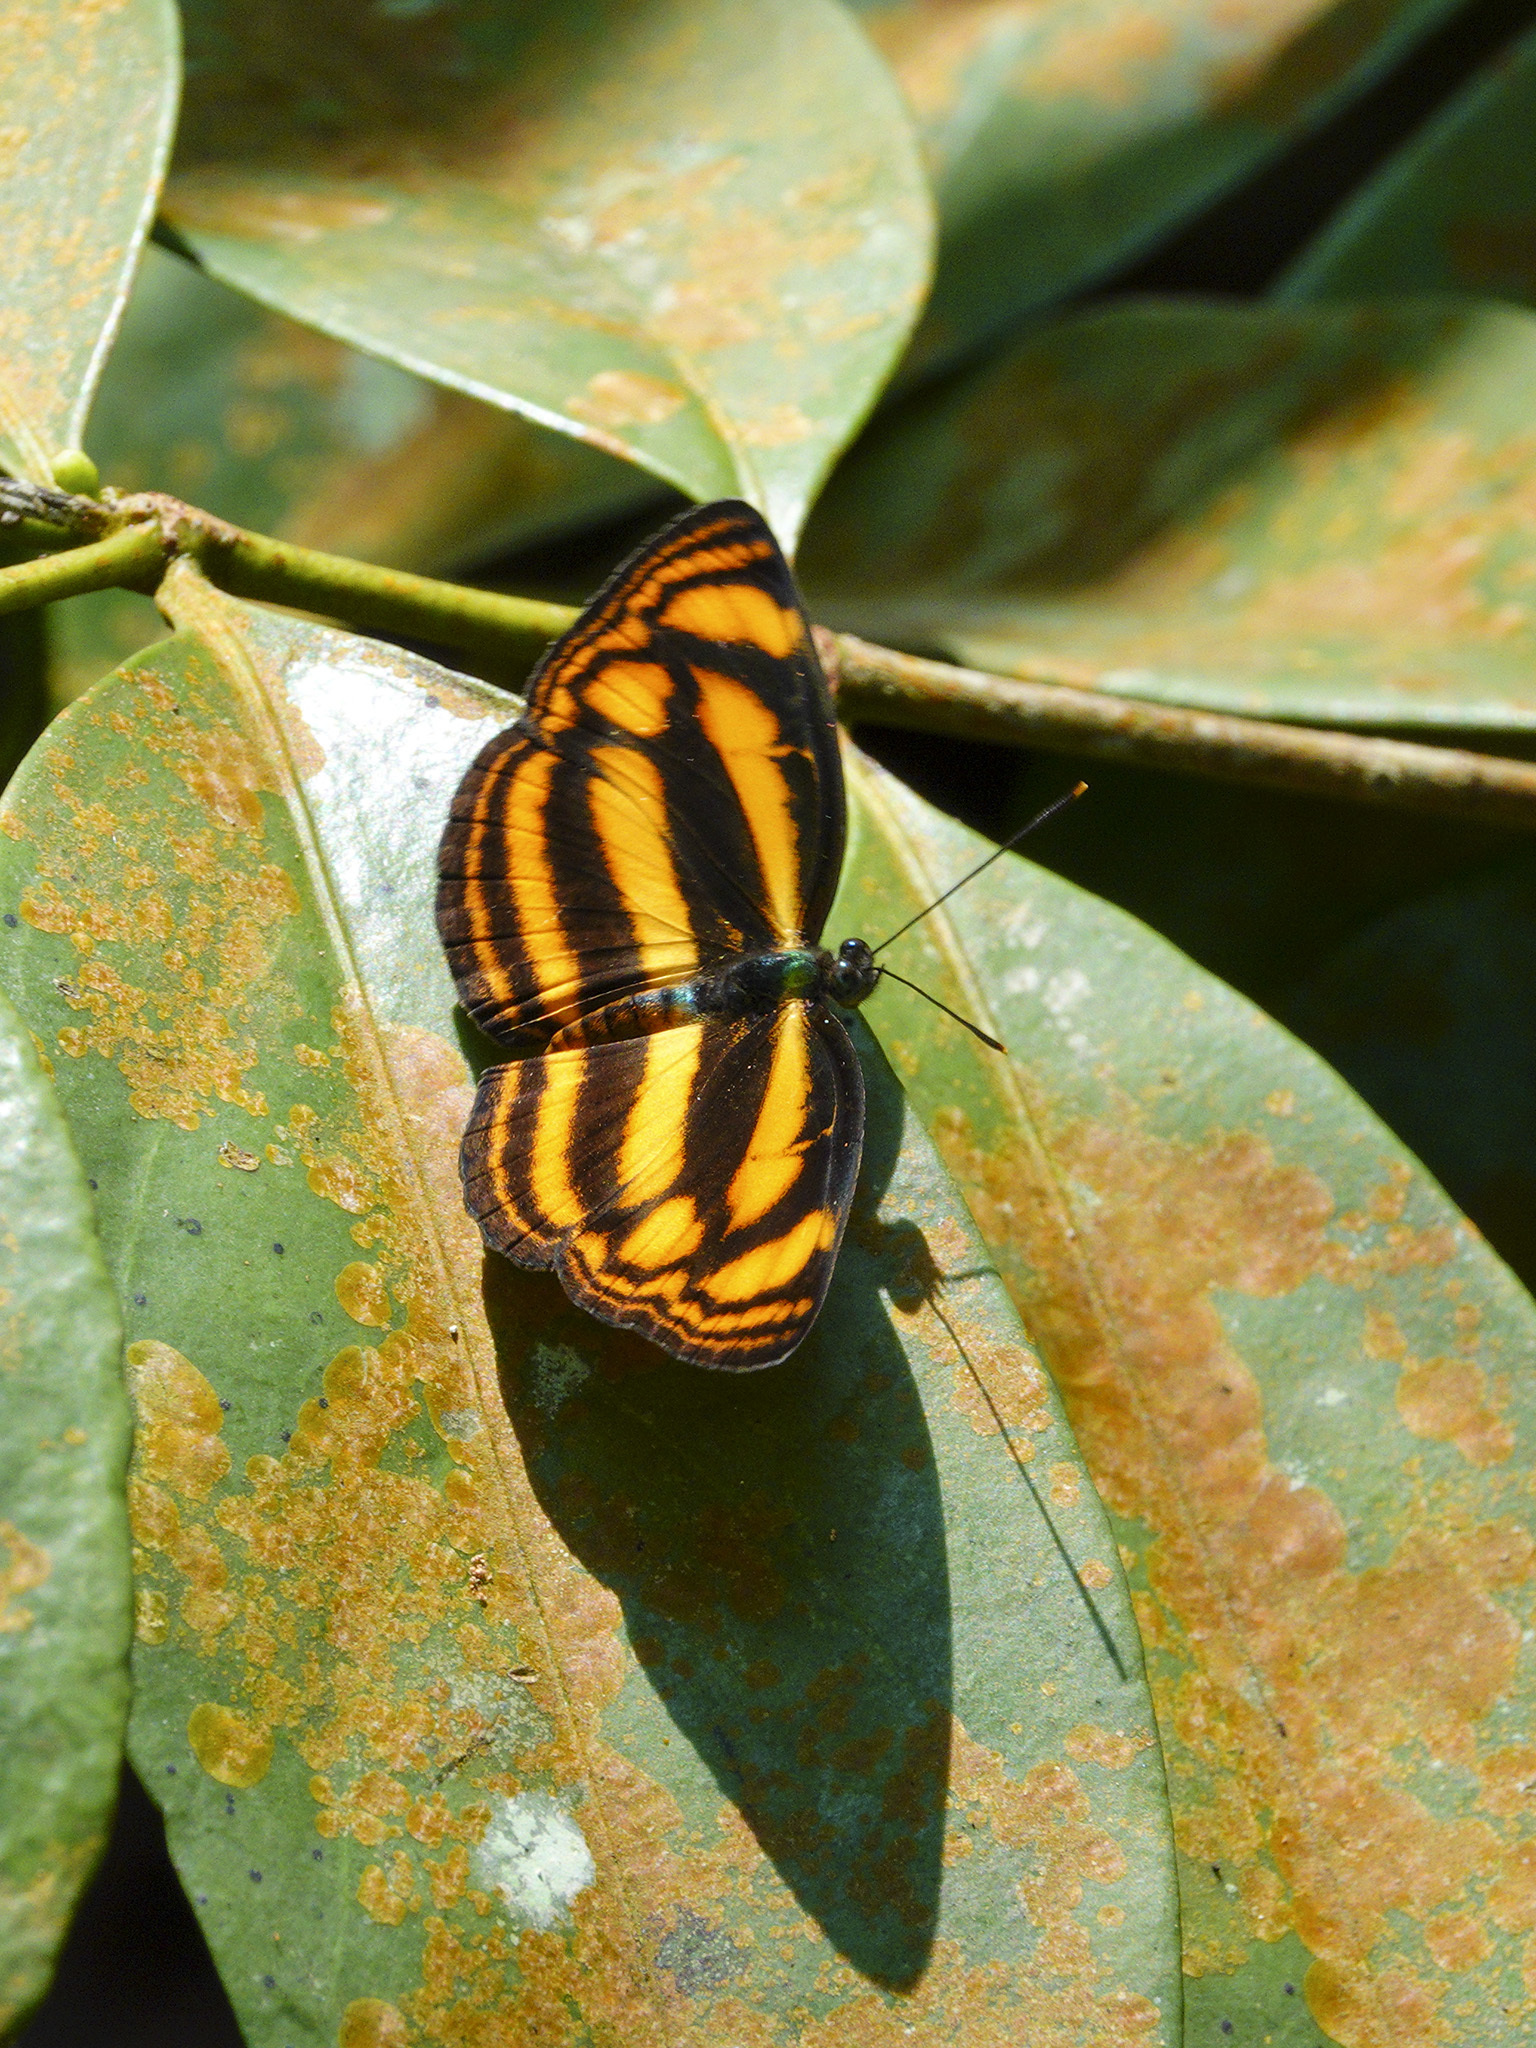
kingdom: Animalia
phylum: Arthropoda
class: Insecta
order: Lepidoptera
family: Nymphalidae
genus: Lasippa
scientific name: Lasippa tiga
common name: Malayan lascar
